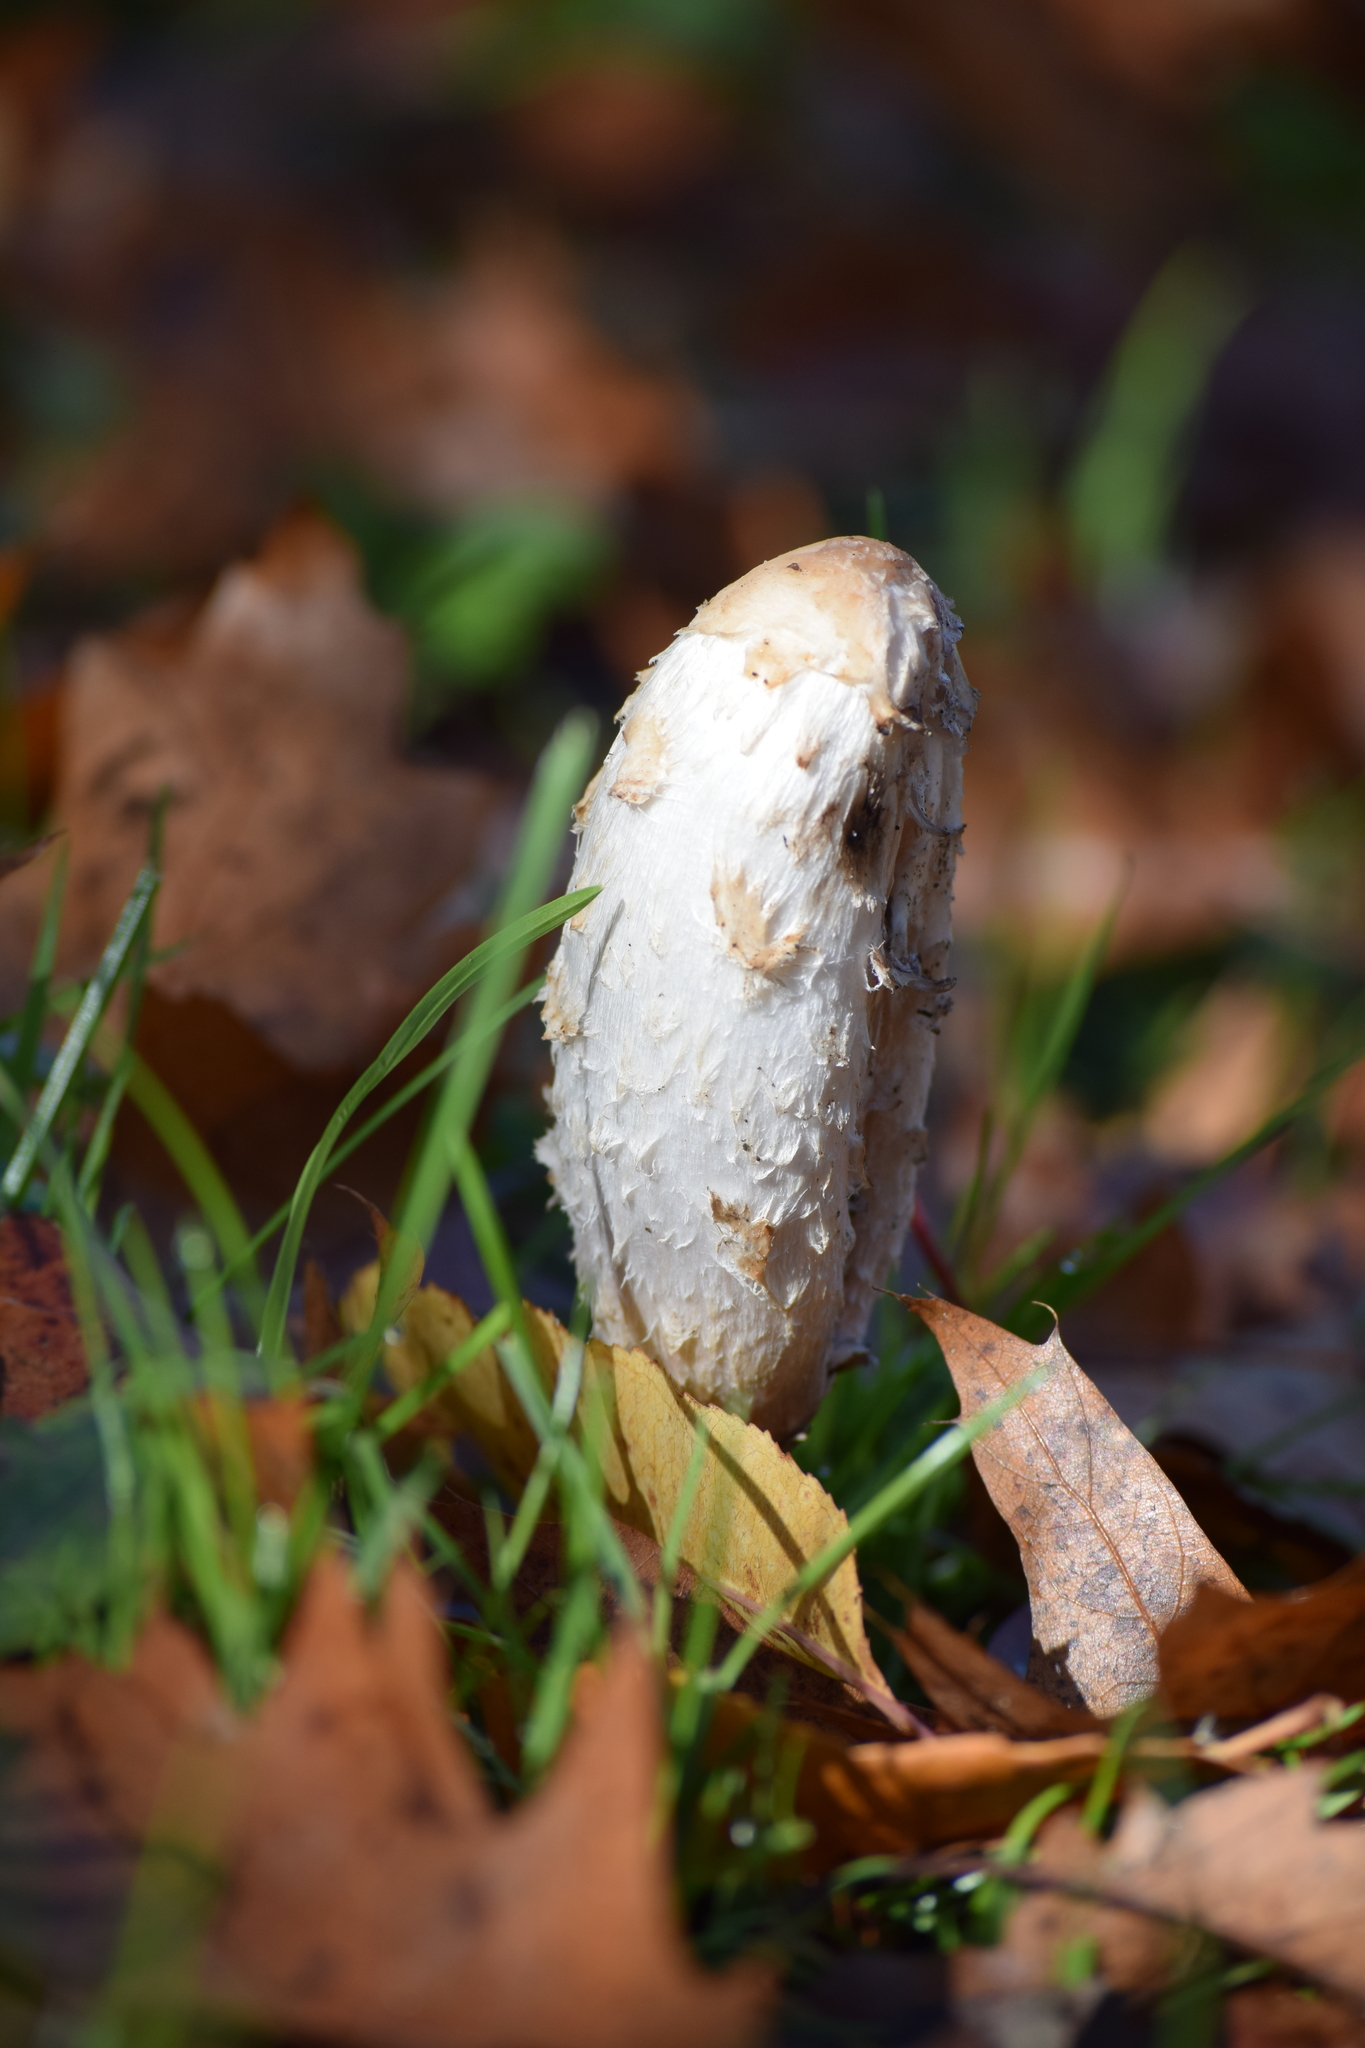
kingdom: Fungi
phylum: Basidiomycota
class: Agaricomycetes
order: Agaricales
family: Agaricaceae
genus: Coprinus
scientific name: Coprinus comatus
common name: Lawyer's wig
